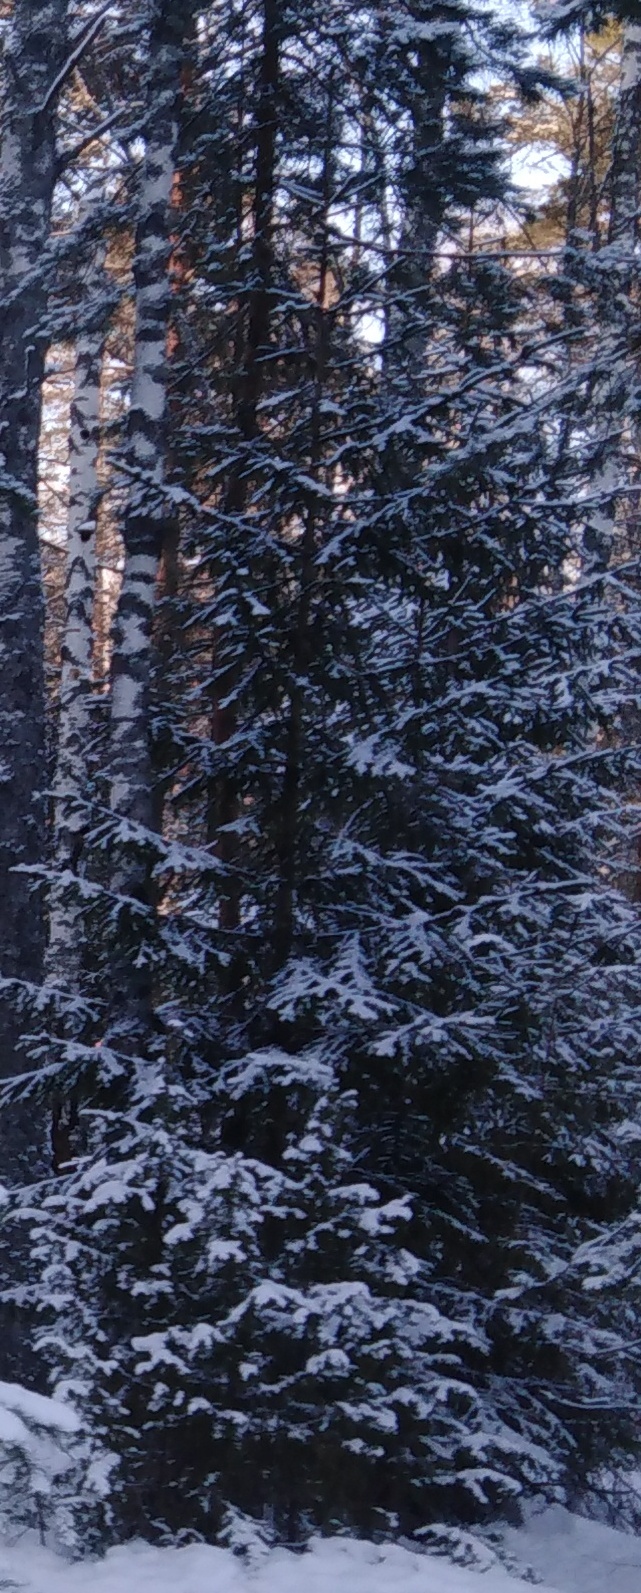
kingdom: Plantae
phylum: Tracheophyta
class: Pinopsida
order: Pinales
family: Pinaceae
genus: Picea
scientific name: Picea abies
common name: Norway spruce
